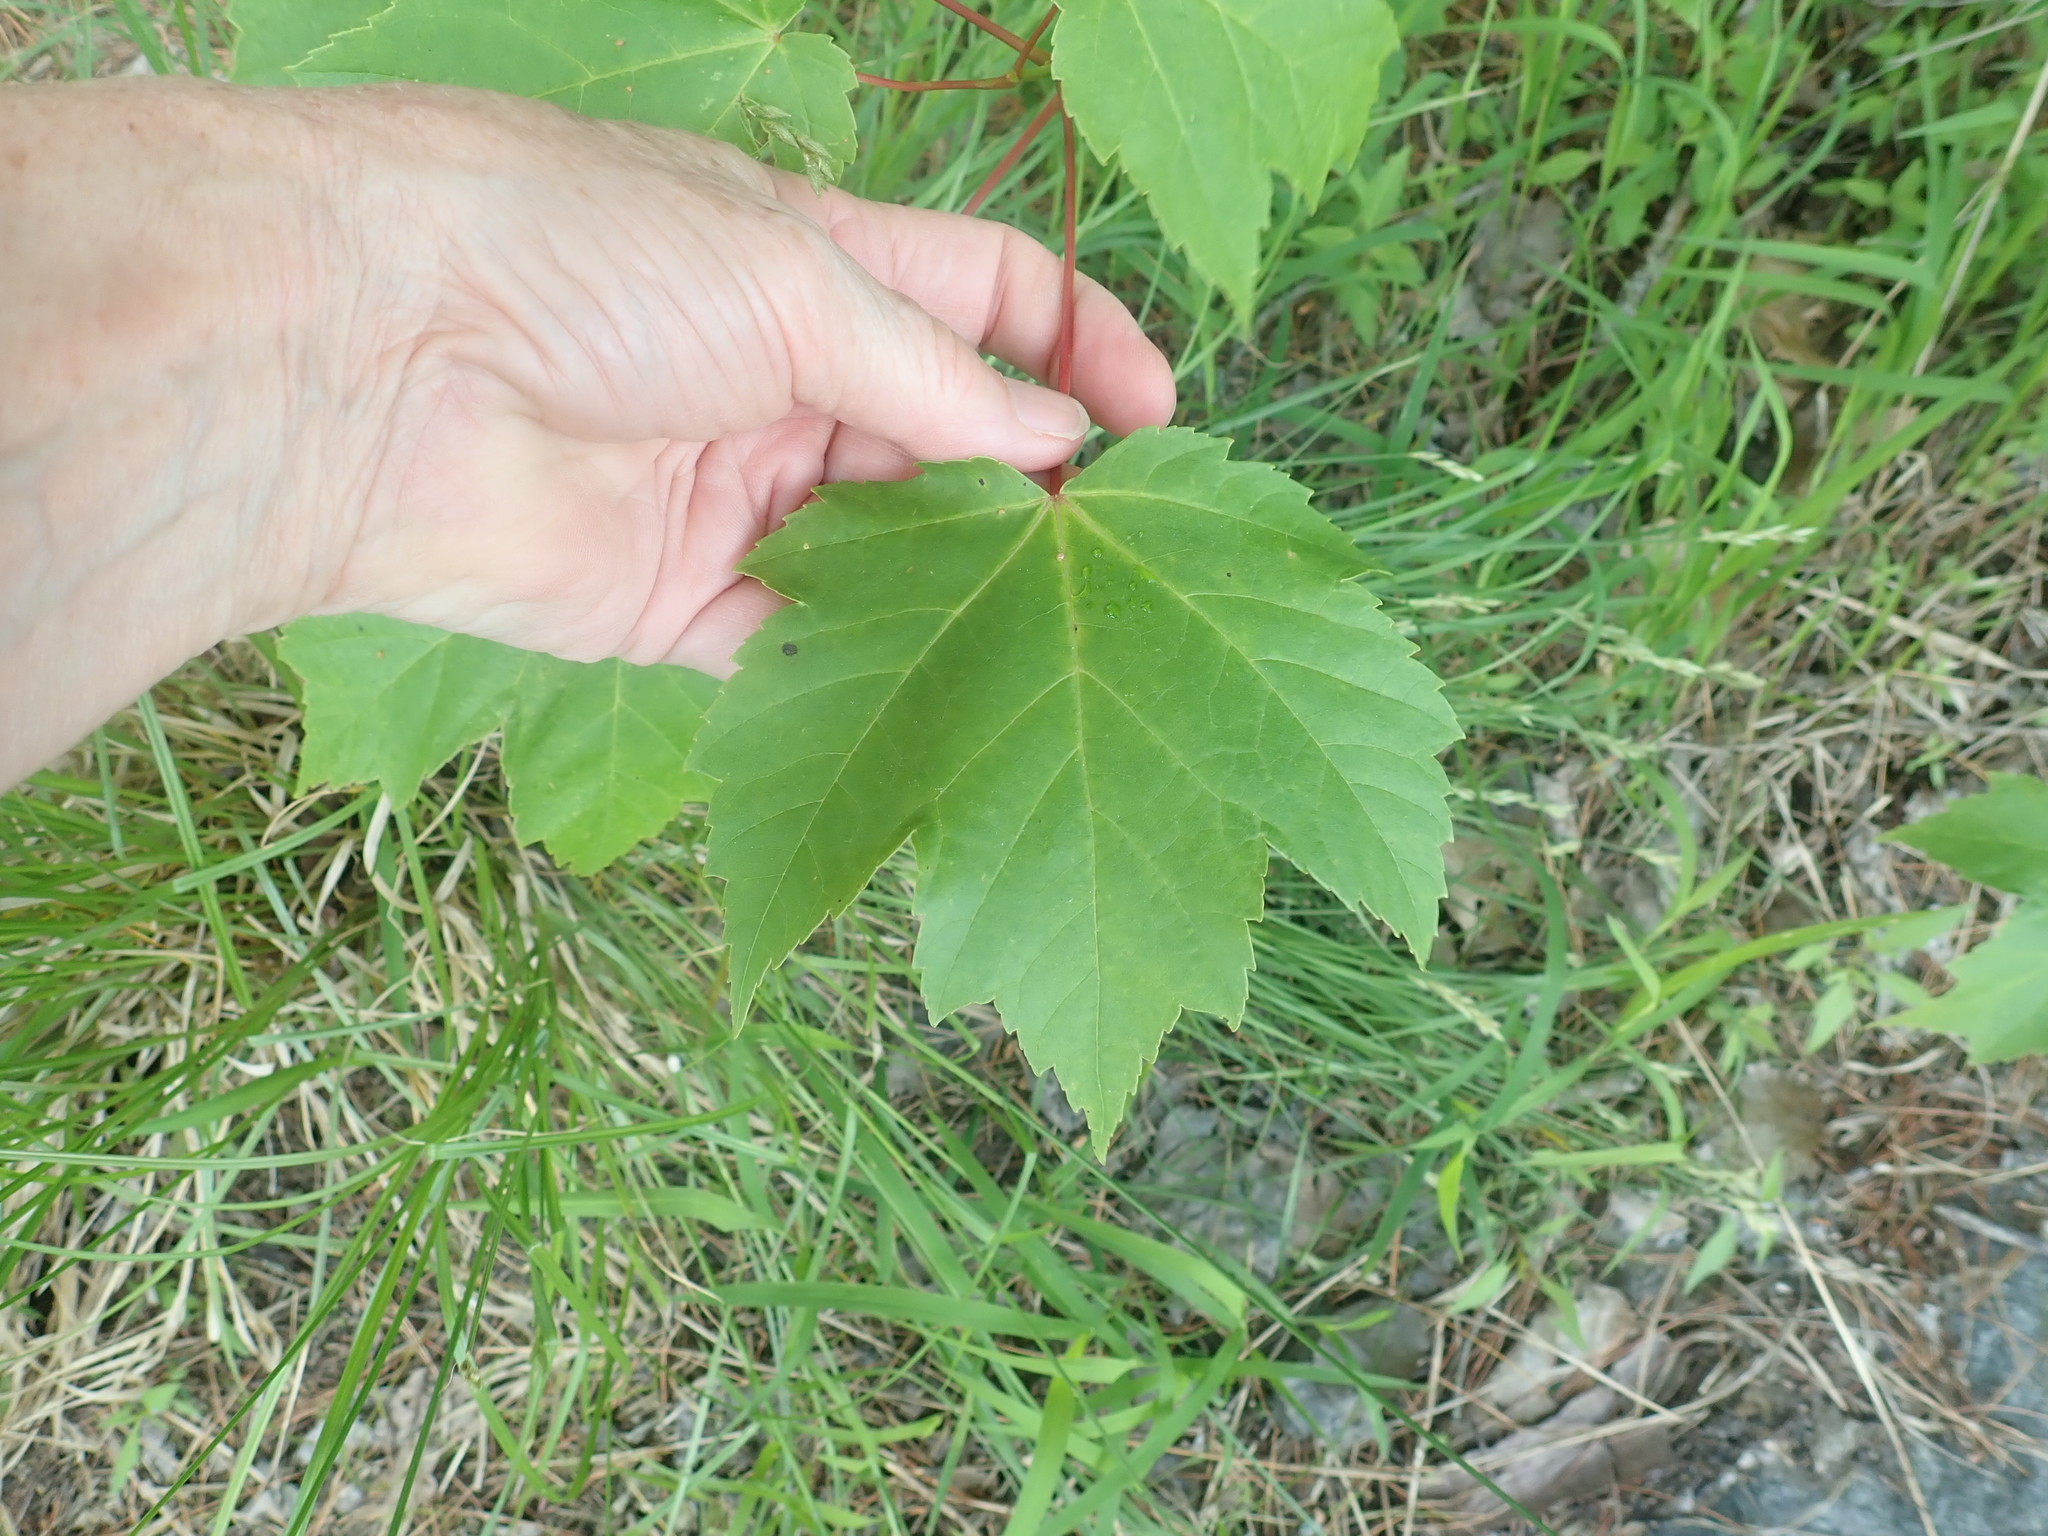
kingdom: Plantae
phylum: Tracheophyta
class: Magnoliopsida
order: Sapindales
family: Sapindaceae
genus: Acer
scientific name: Acer rubrum
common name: Red maple
